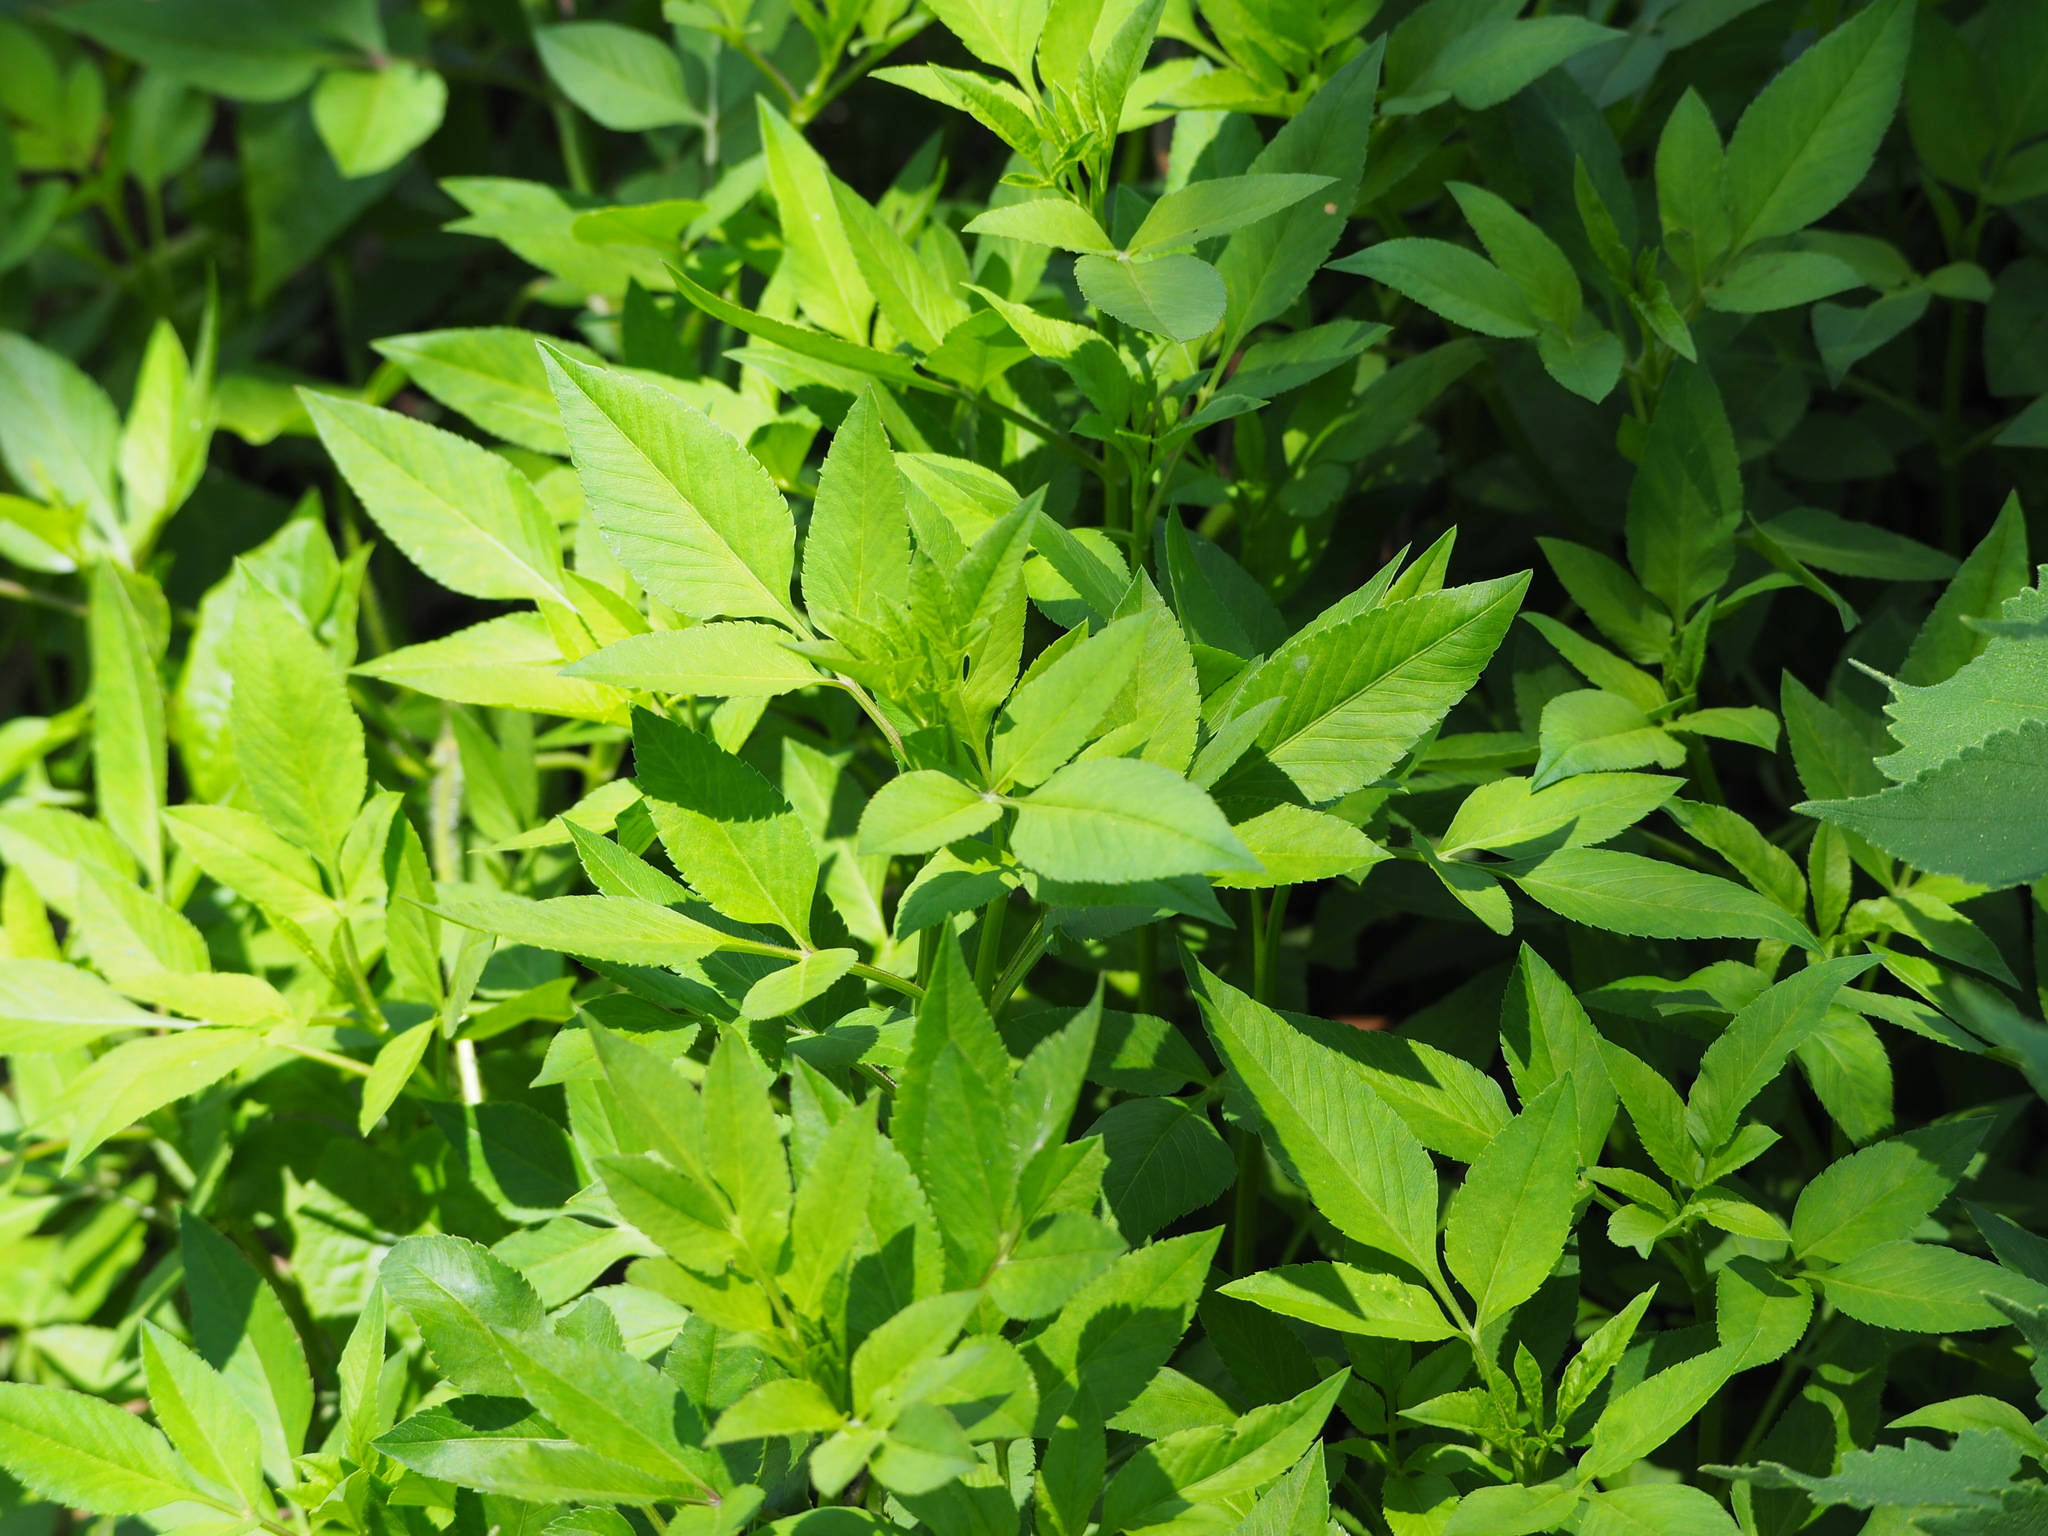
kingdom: Plantae
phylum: Tracheophyta
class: Magnoliopsida
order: Asterales
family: Asteraceae
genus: Bidens
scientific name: Bidens alba
